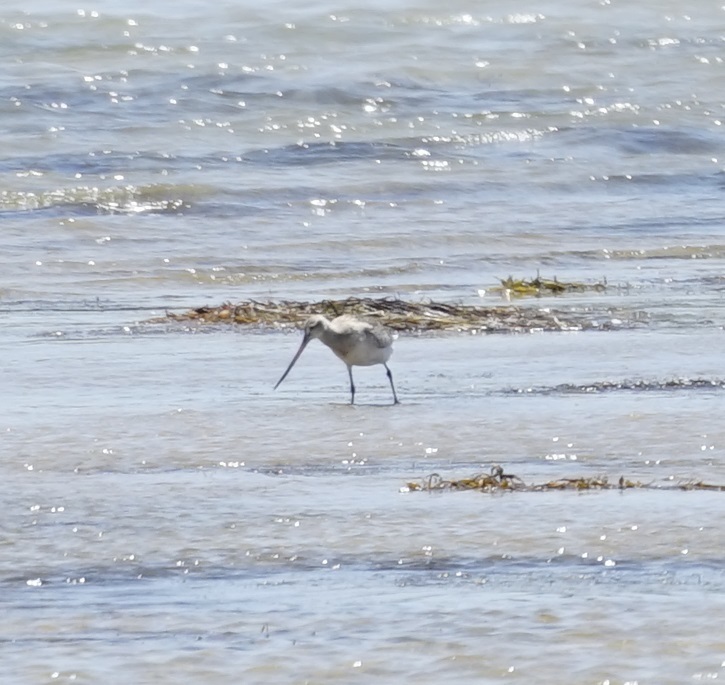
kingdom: Animalia
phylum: Chordata
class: Aves
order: Charadriiformes
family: Scolopacidae
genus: Limosa
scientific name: Limosa lapponica
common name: Bar-tailed godwit
